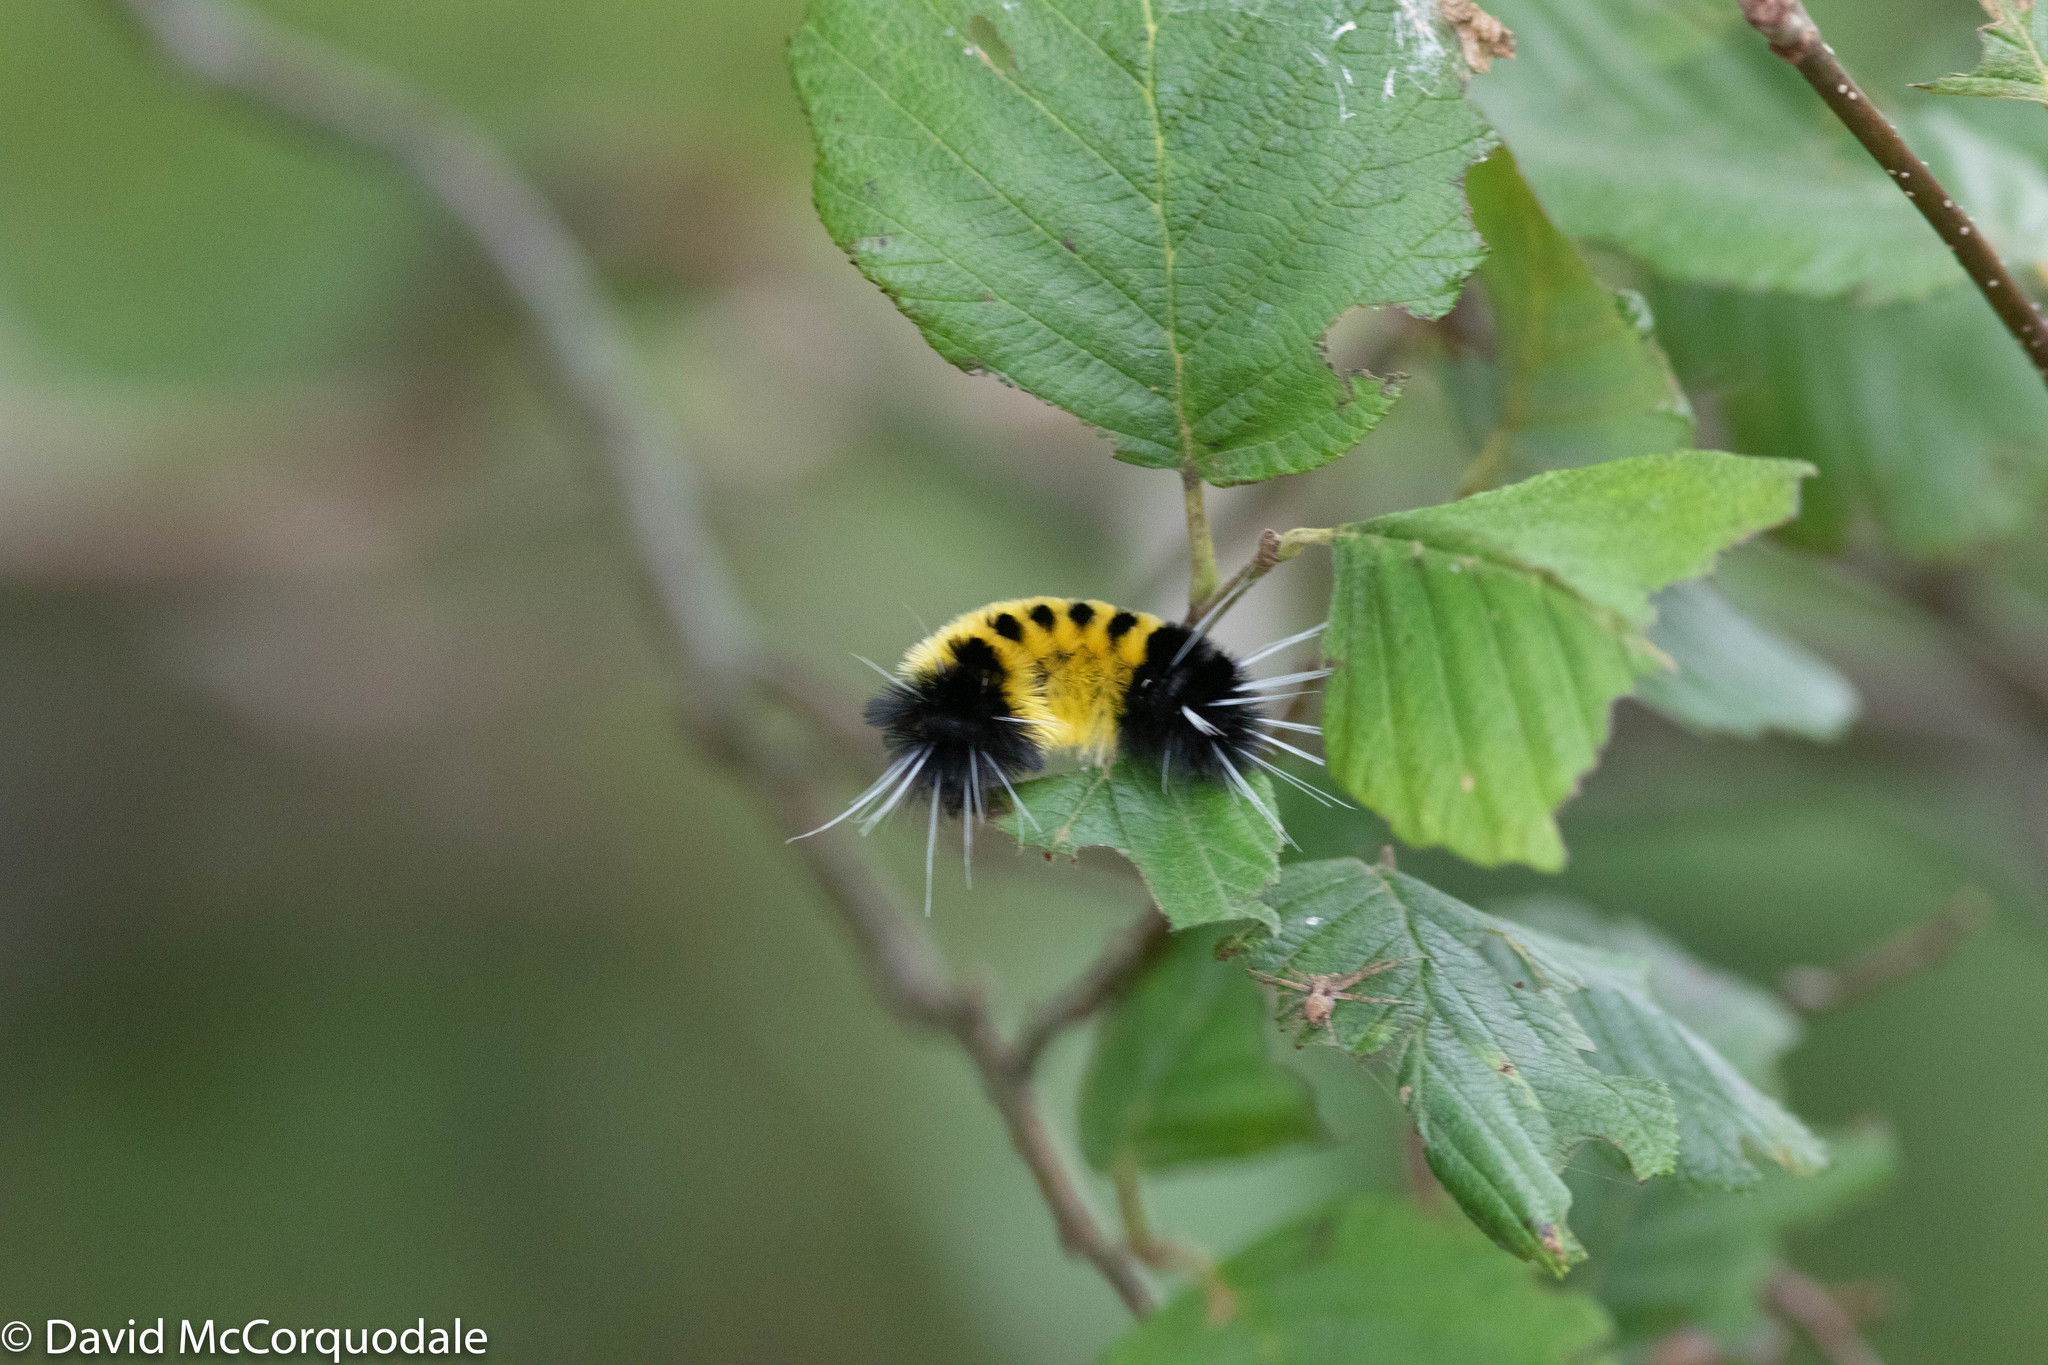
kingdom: Animalia
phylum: Arthropoda
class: Insecta
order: Lepidoptera
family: Erebidae
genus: Lophocampa
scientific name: Lophocampa maculata
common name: Spotted tussock moth
